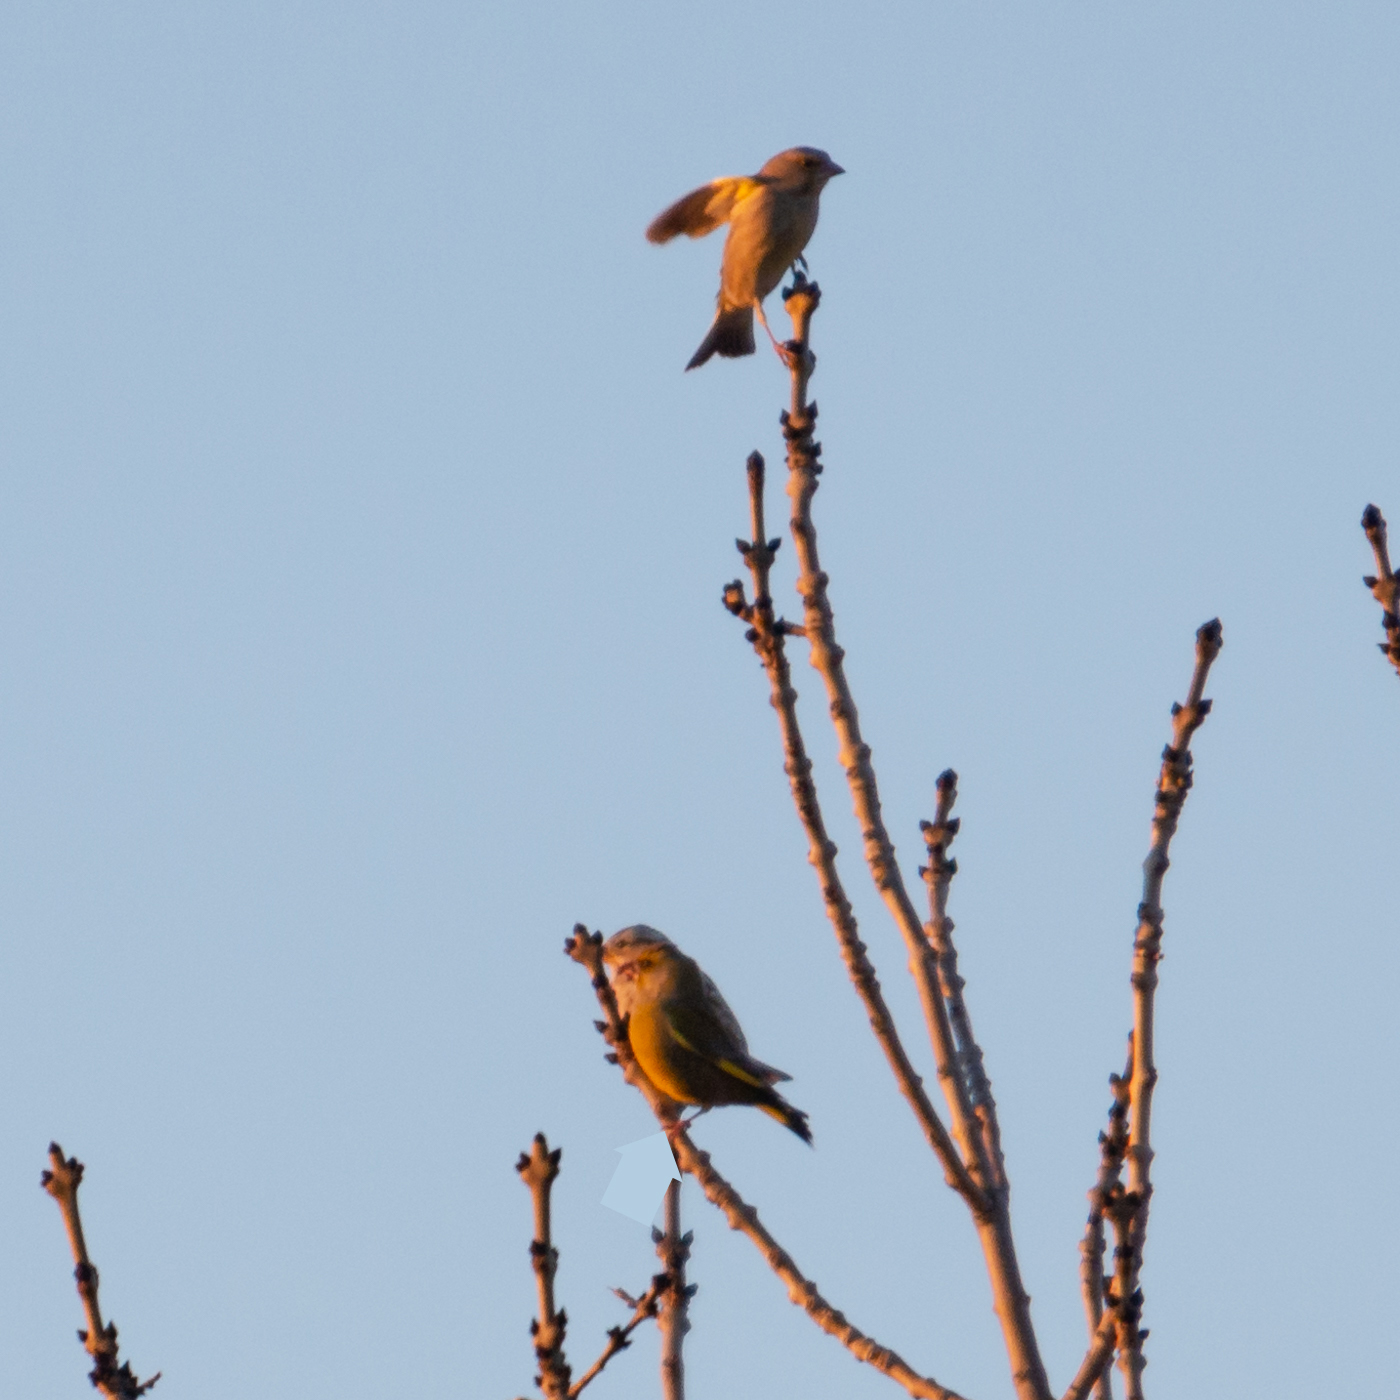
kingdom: Plantae
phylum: Tracheophyta
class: Liliopsida
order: Poales
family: Poaceae
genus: Chloris
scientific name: Chloris chloris
